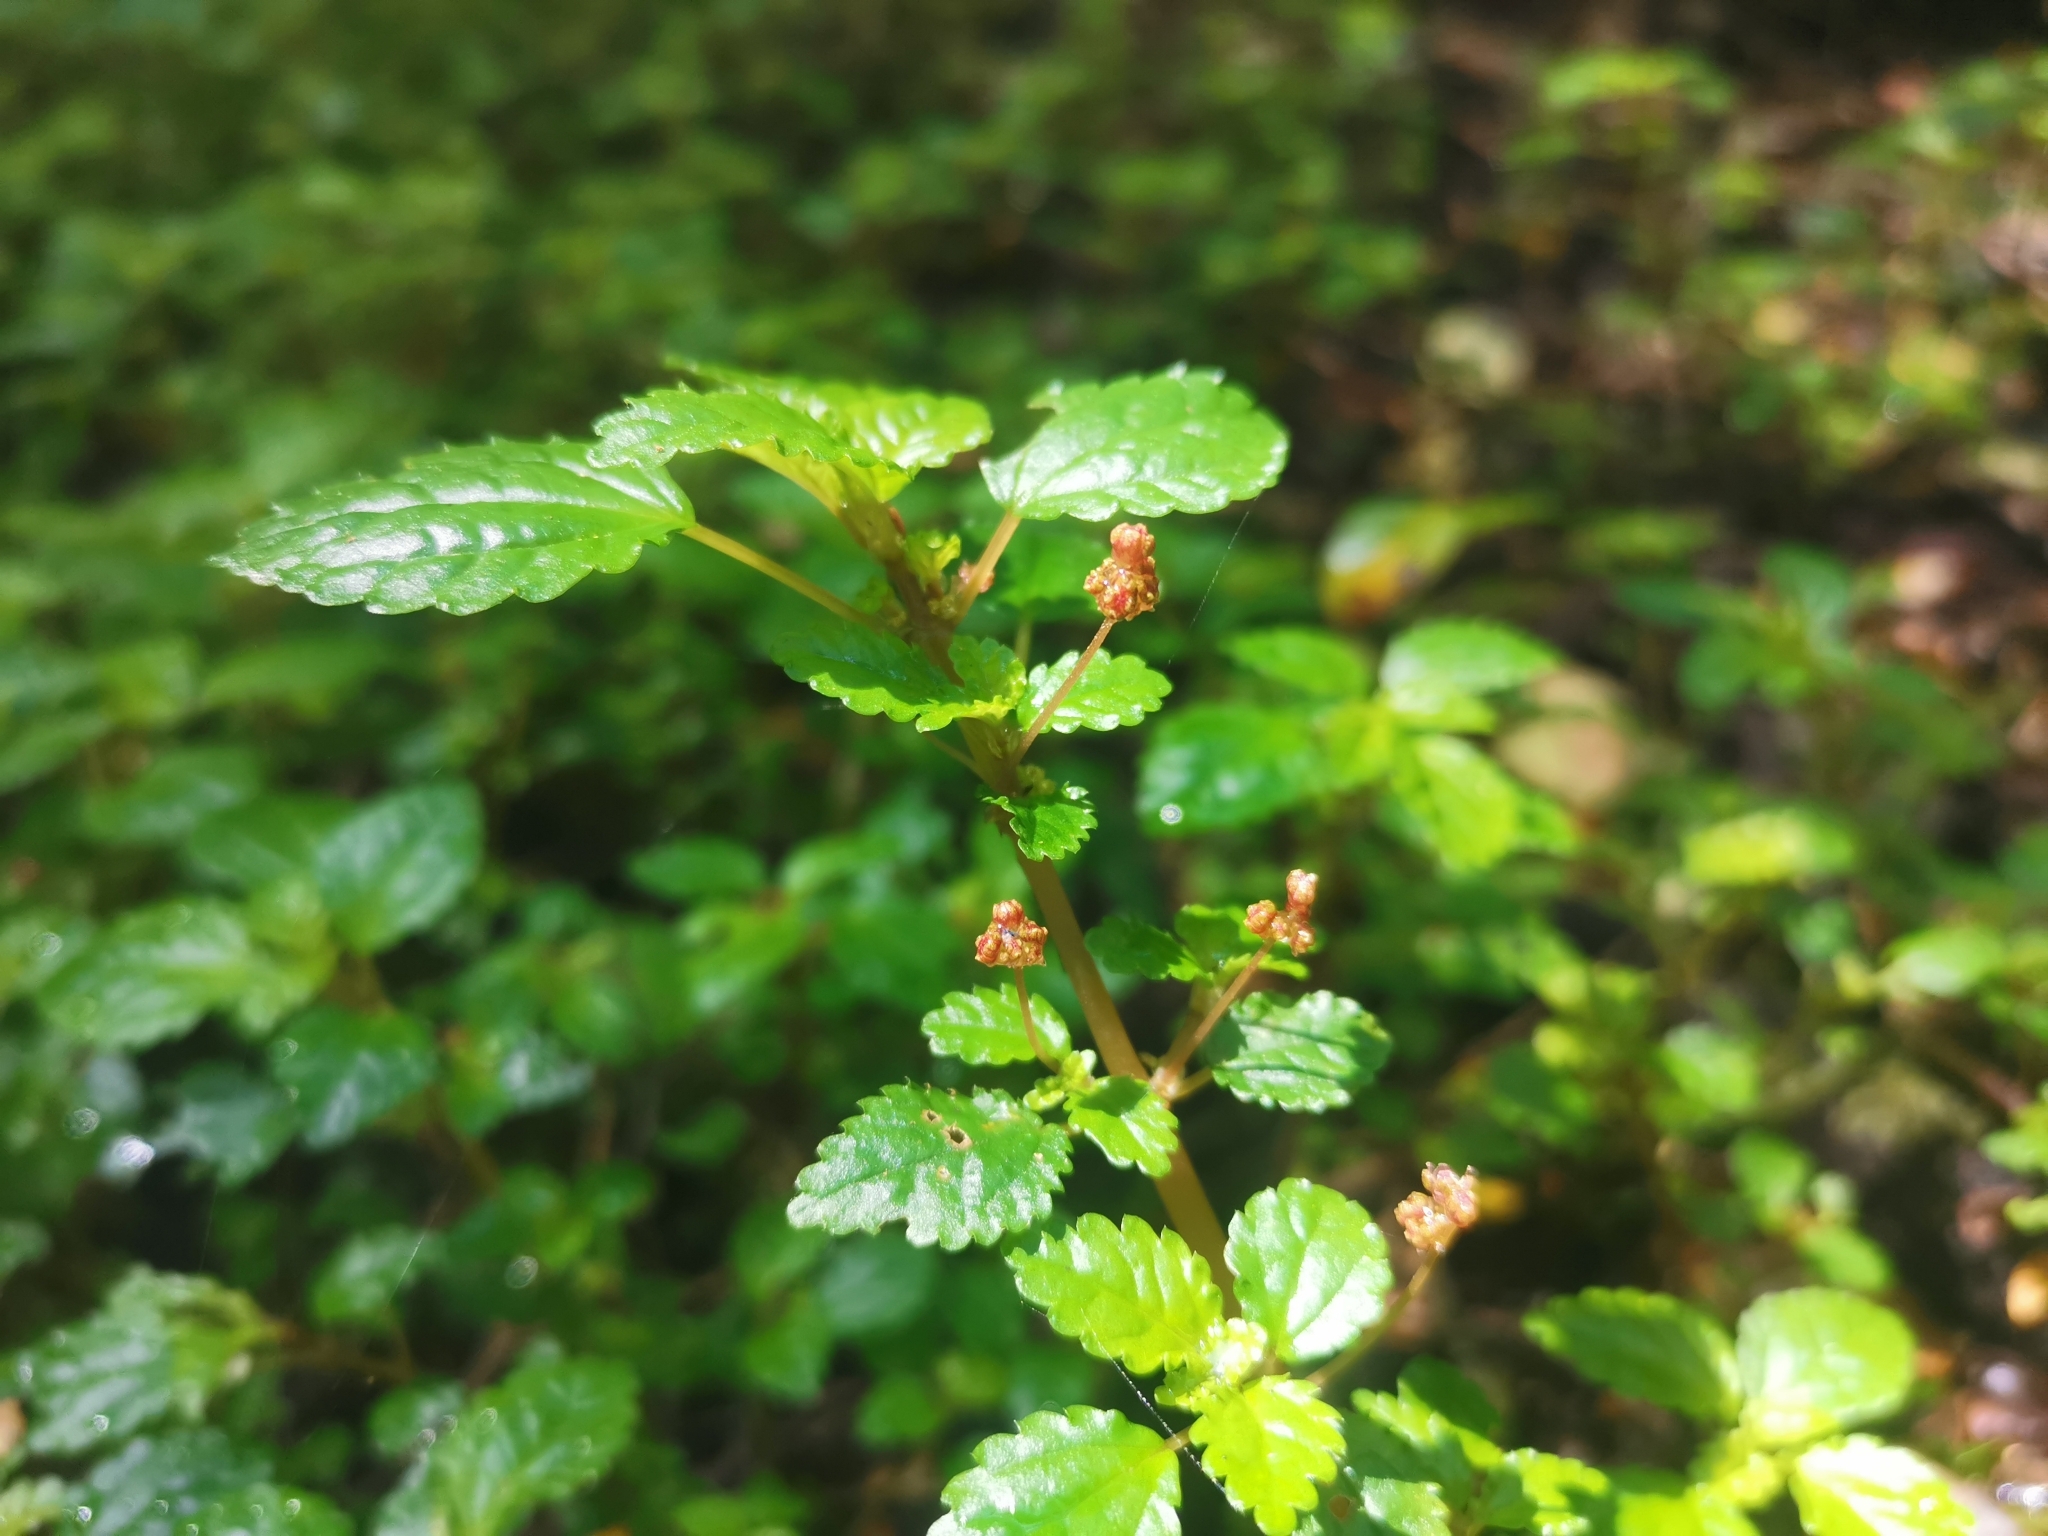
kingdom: Plantae
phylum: Tracheophyta
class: Magnoliopsida
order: Rosales
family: Urticaceae
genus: Pilea
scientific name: Pilea elliptica
